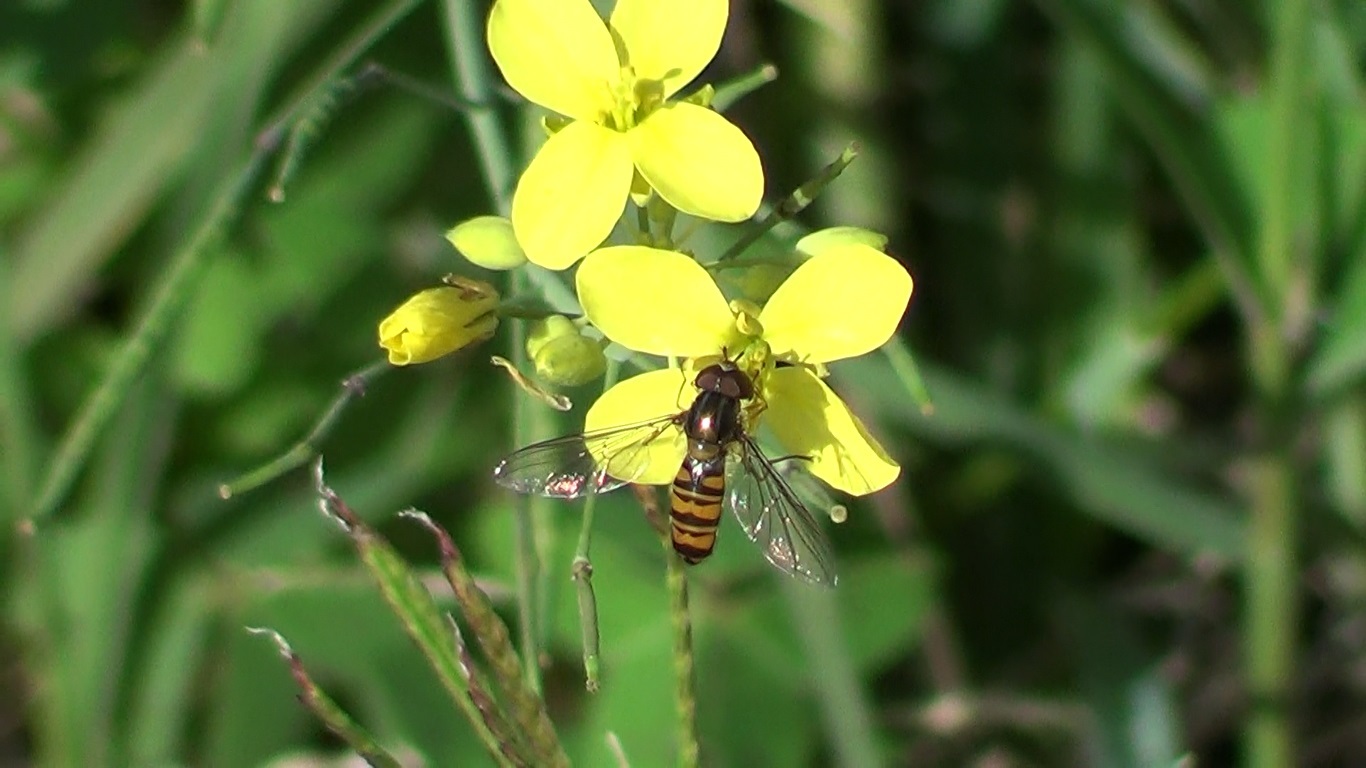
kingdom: Animalia
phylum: Arthropoda
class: Insecta
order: Diptera
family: Syrphidae
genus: Episyrphus
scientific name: Episyrphus balteatus
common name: Marmalade hoverfly
